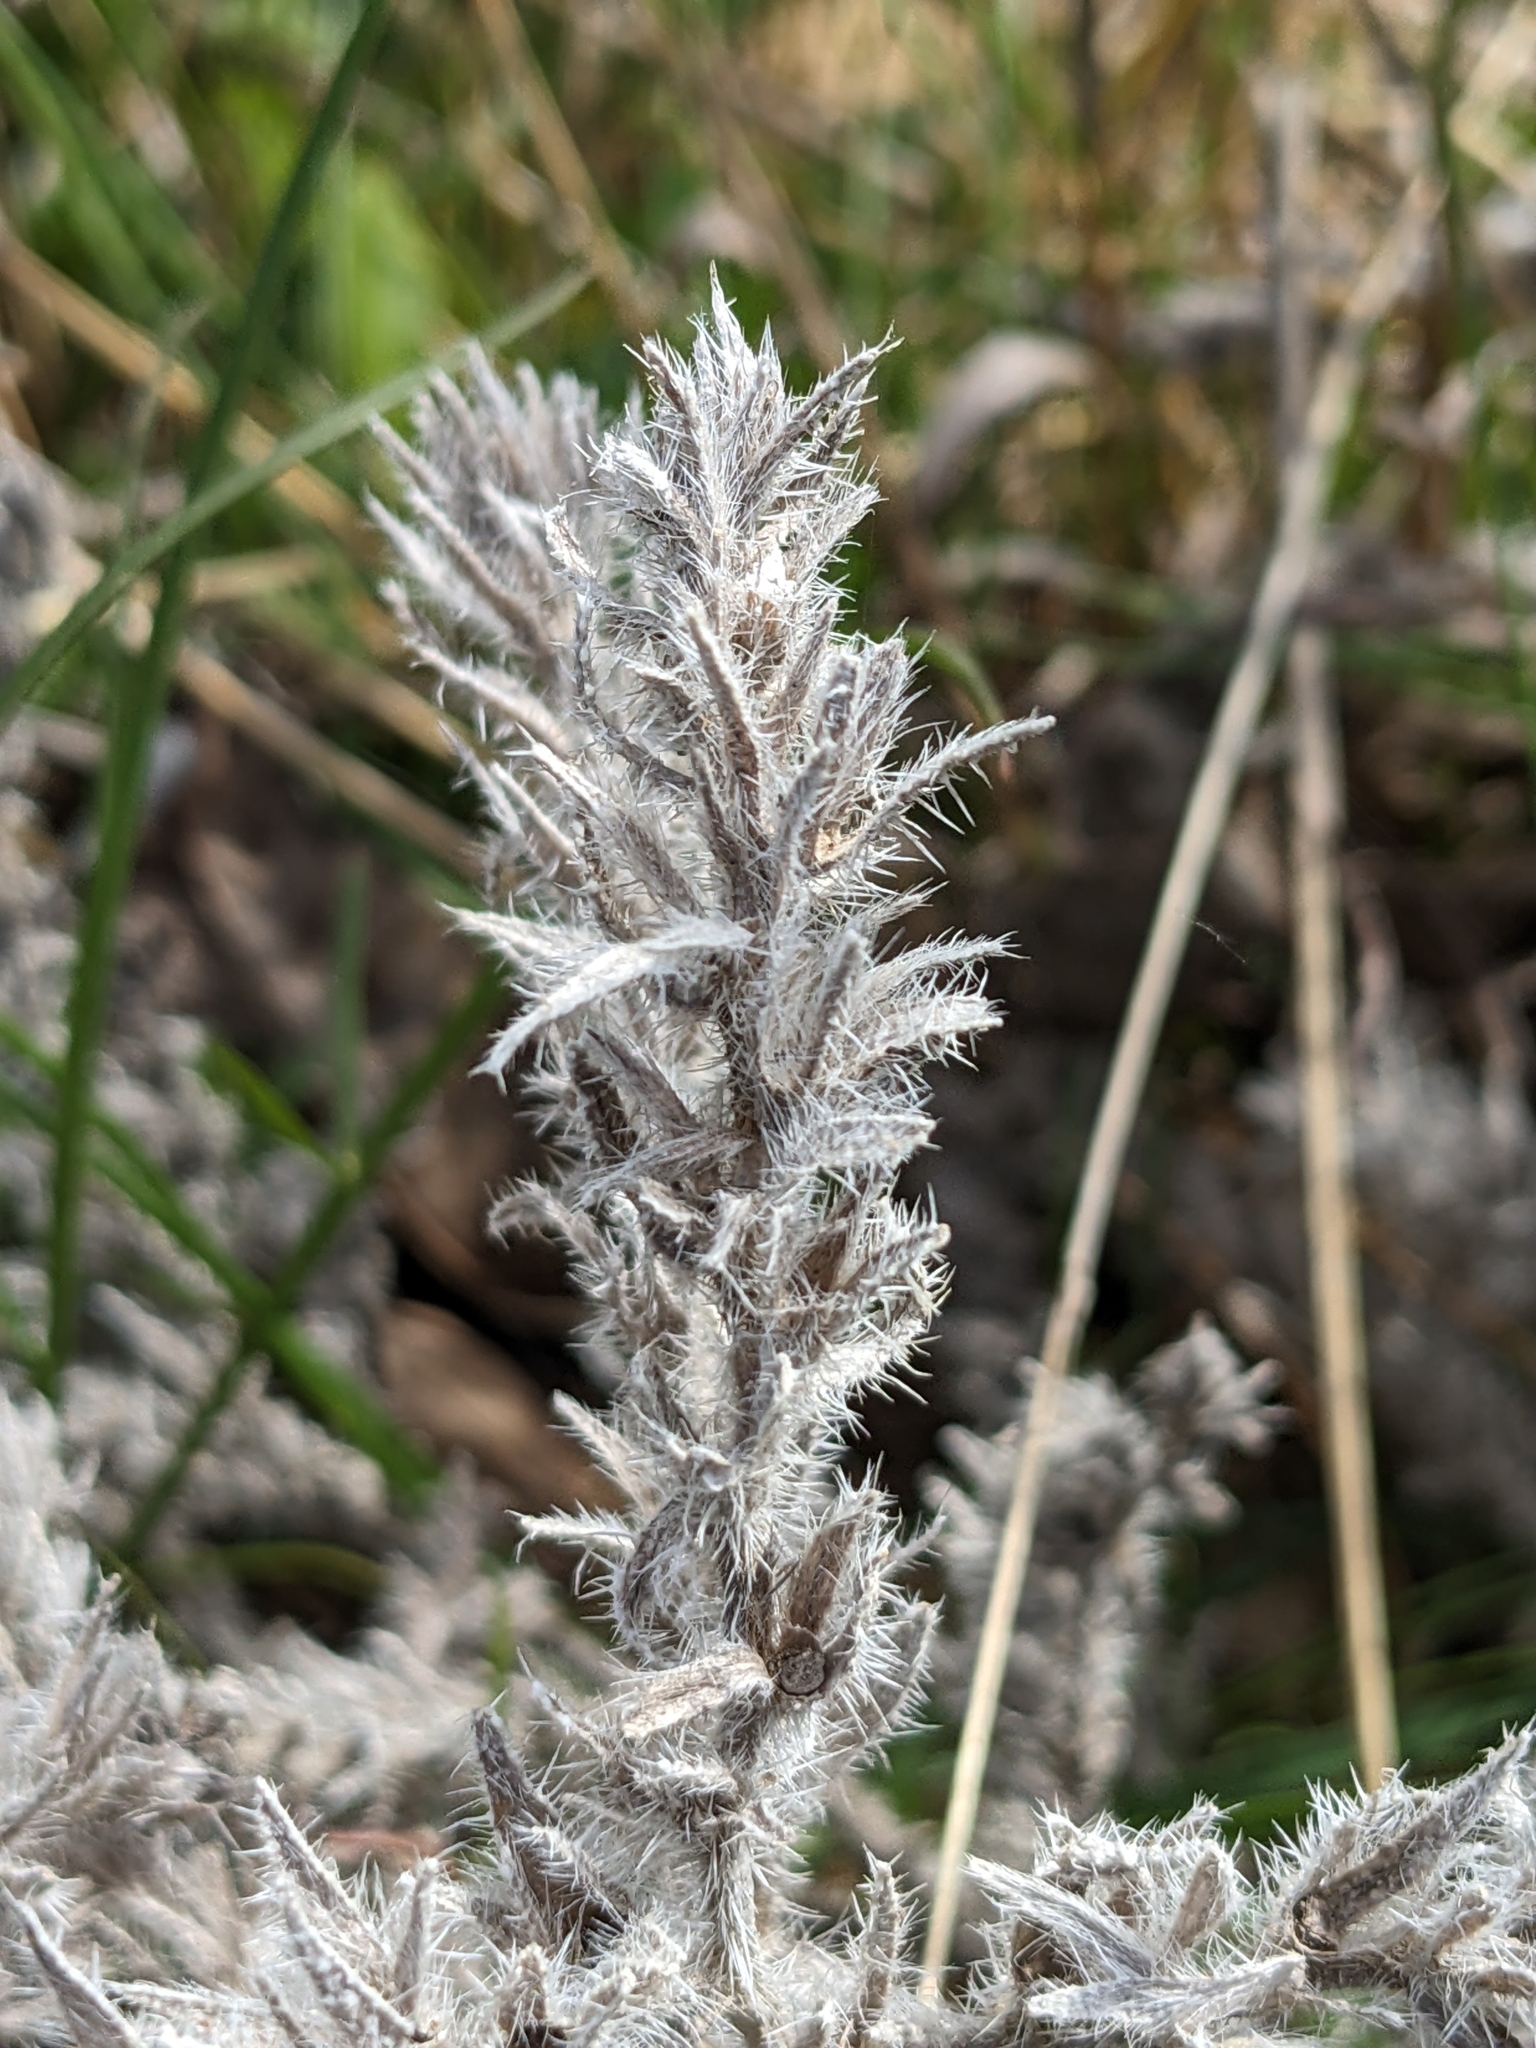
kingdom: Plantae
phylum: Tracheophyta
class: Magnoliopsida
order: Boraginales
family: Boraginaceae
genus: Nonea
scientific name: Nonea pulla
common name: Brown nonea
